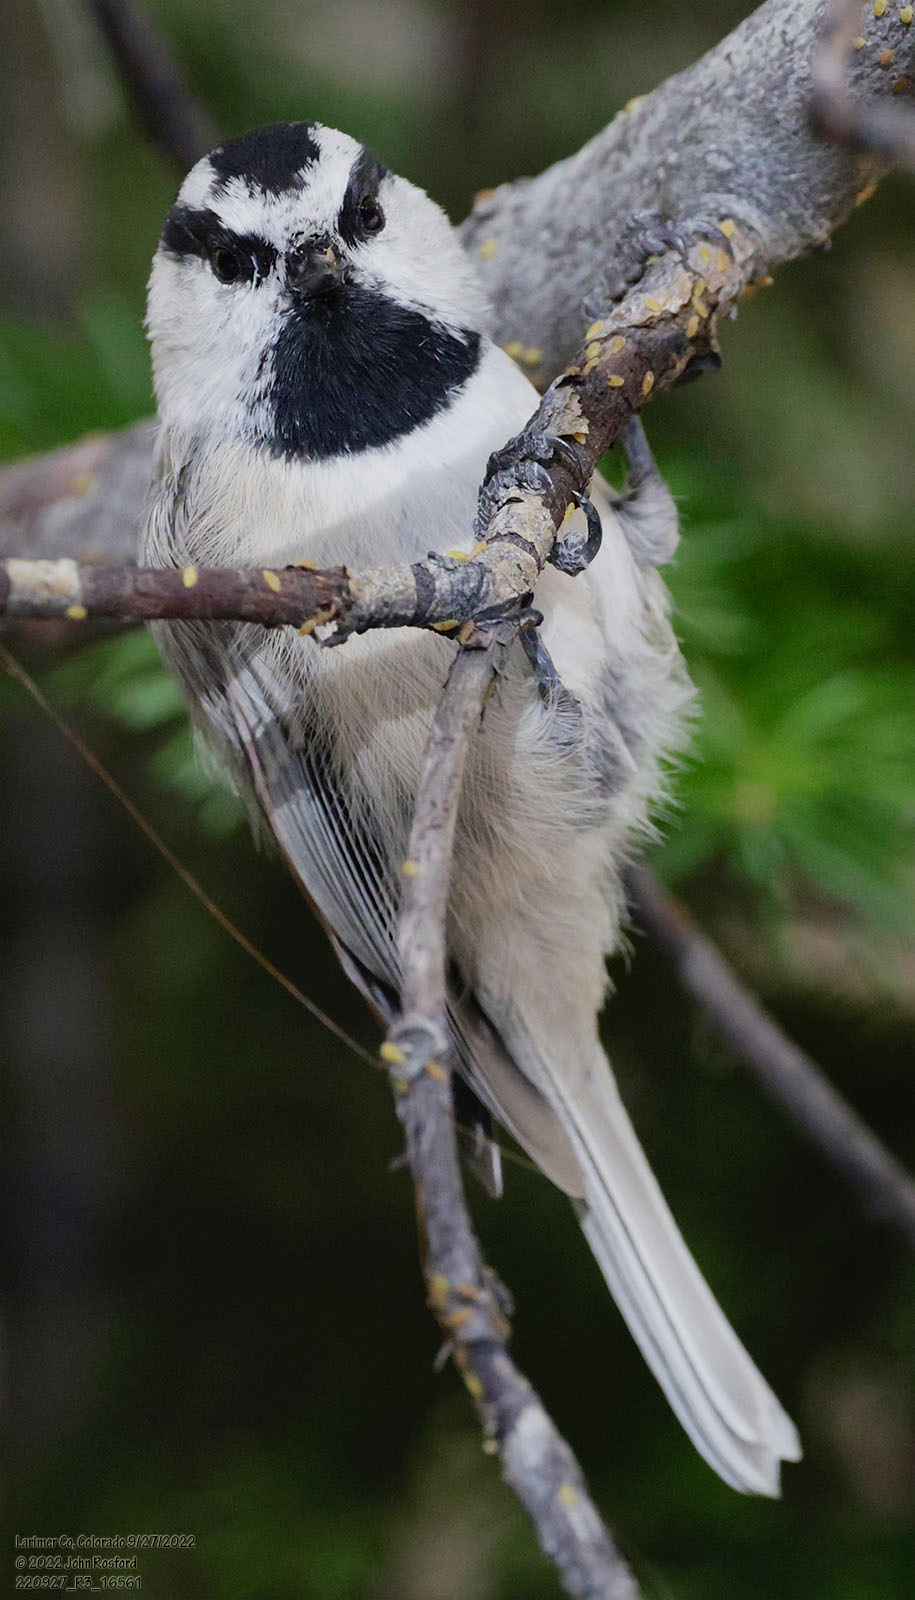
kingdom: Animalia
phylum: Chordata
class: Aves
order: Passeriformes
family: Paridae
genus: Poecile
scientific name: Poecile gambeli
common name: Mountain chickadee
